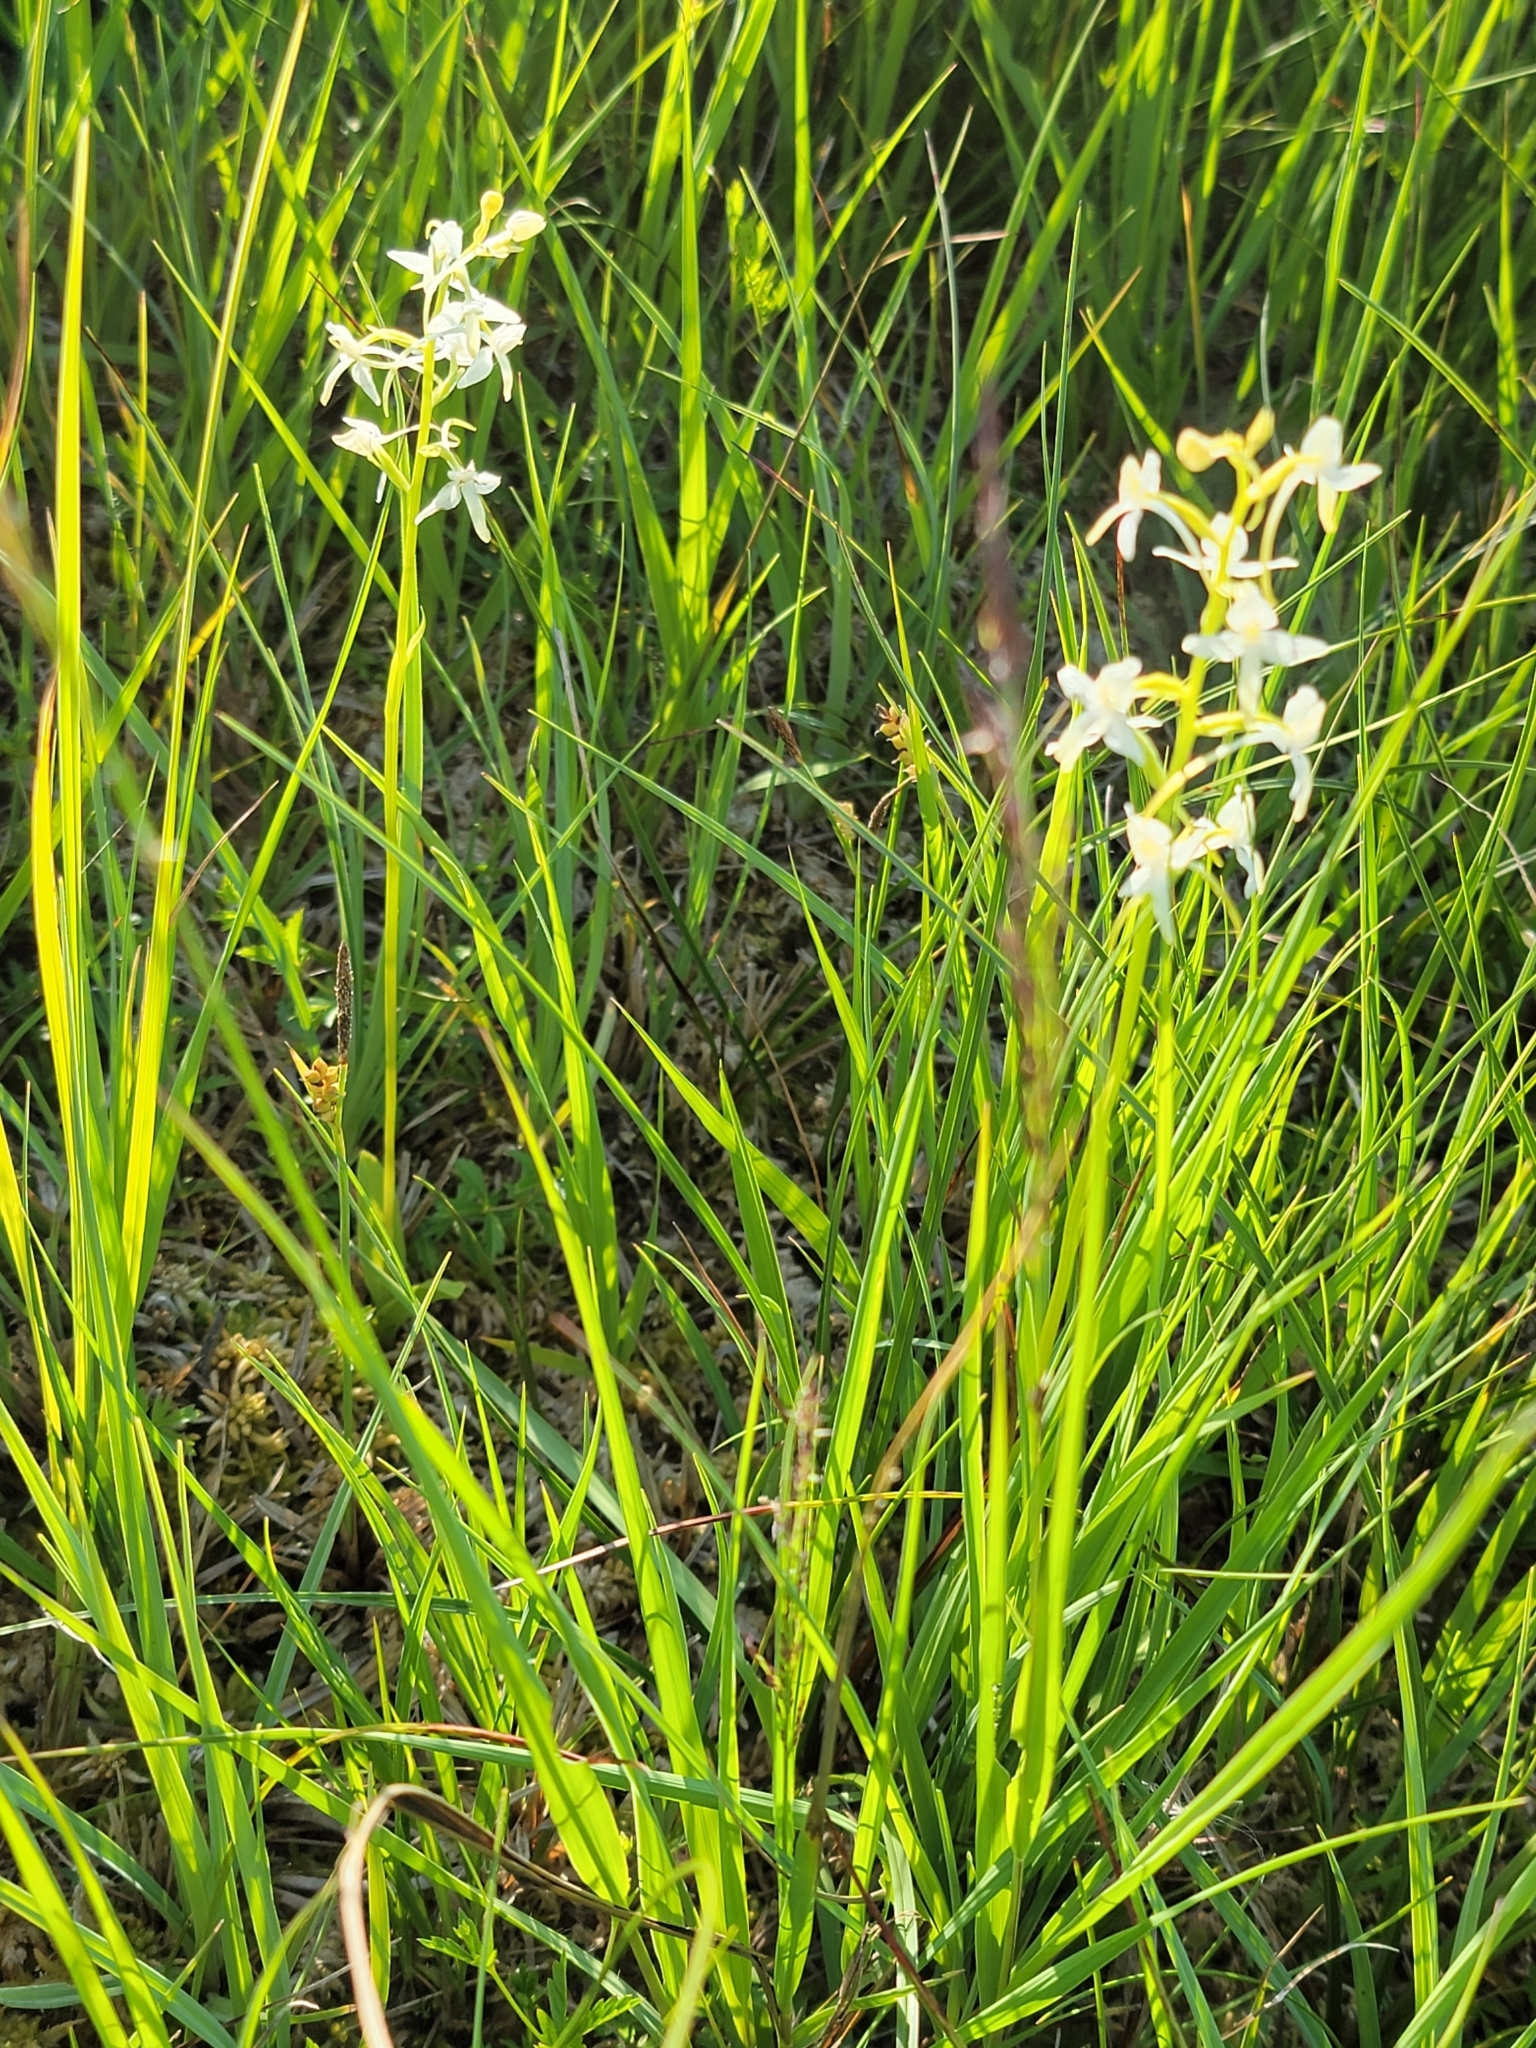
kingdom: Plantae
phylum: Tracheophyta
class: Liliopsida
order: Asparagales
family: Orchidaceae
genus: Platanthera
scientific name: Platanthera bifolia
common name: Lesser butterfly-orchid
